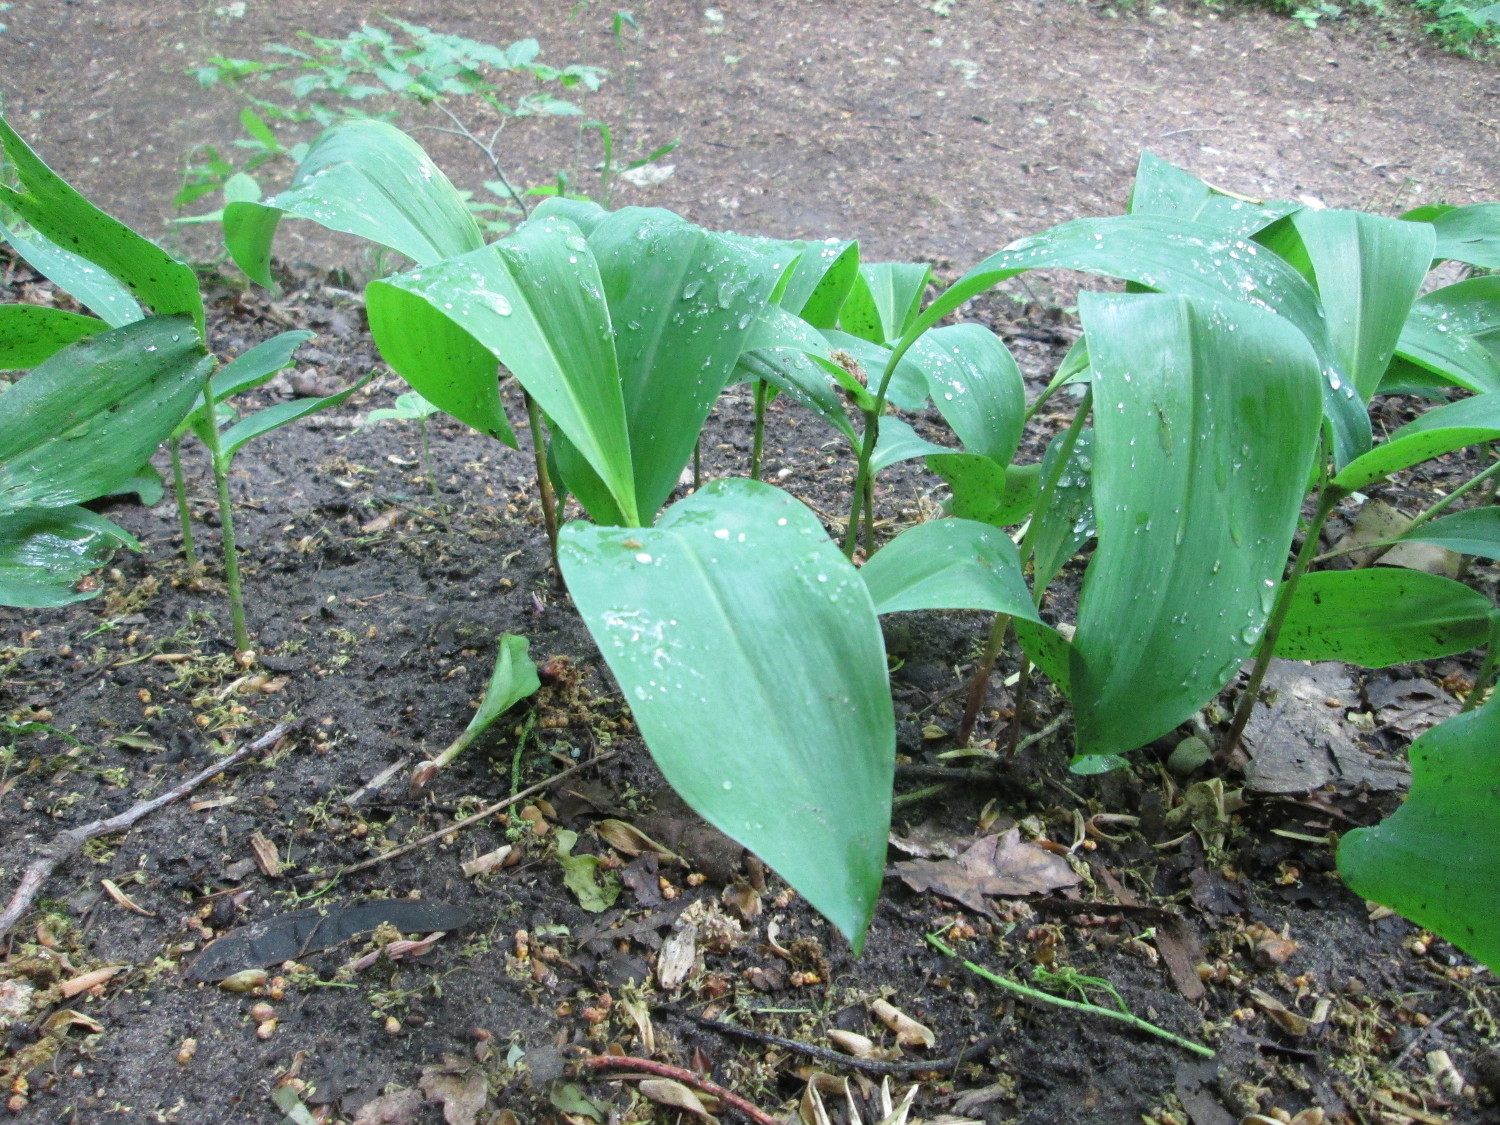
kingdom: Plantae
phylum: Tracheophyta
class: Liliopsida
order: Asparagales
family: Asparagaceae
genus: Convallaria
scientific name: Convallaria majalis
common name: Lily-of-the-valley
